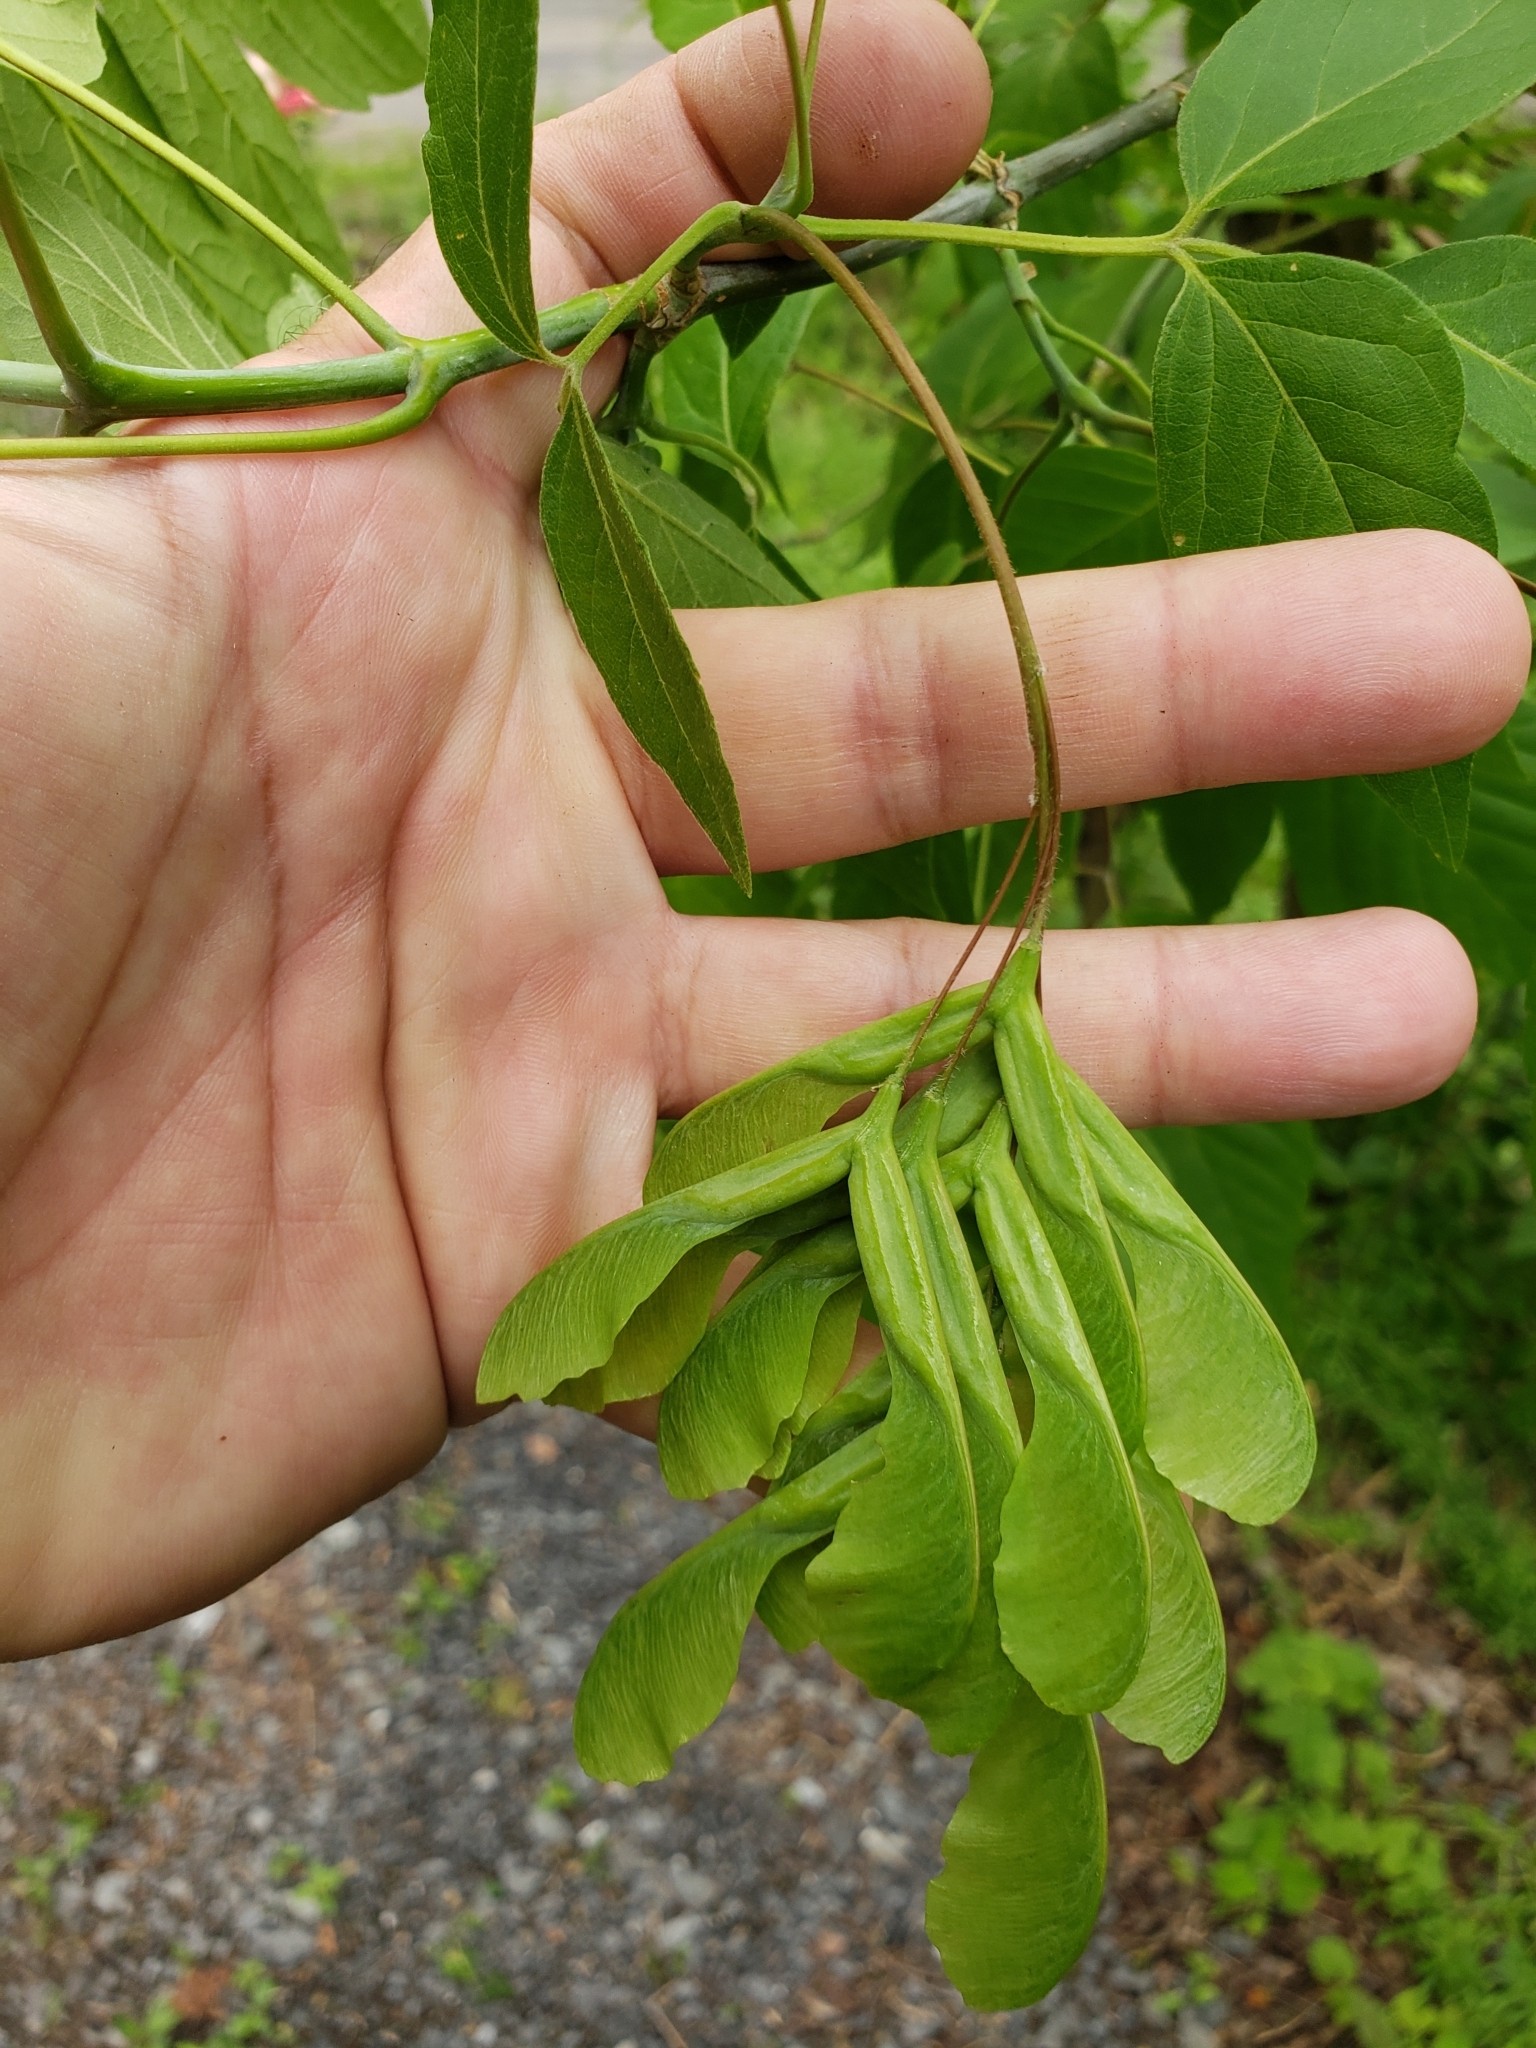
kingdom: Plantae
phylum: Tracheophyta
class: Magnoliopsida
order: Sapindales
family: Sapindaceae
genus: Acer
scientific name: Acer negundo
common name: Ashleaf maple
